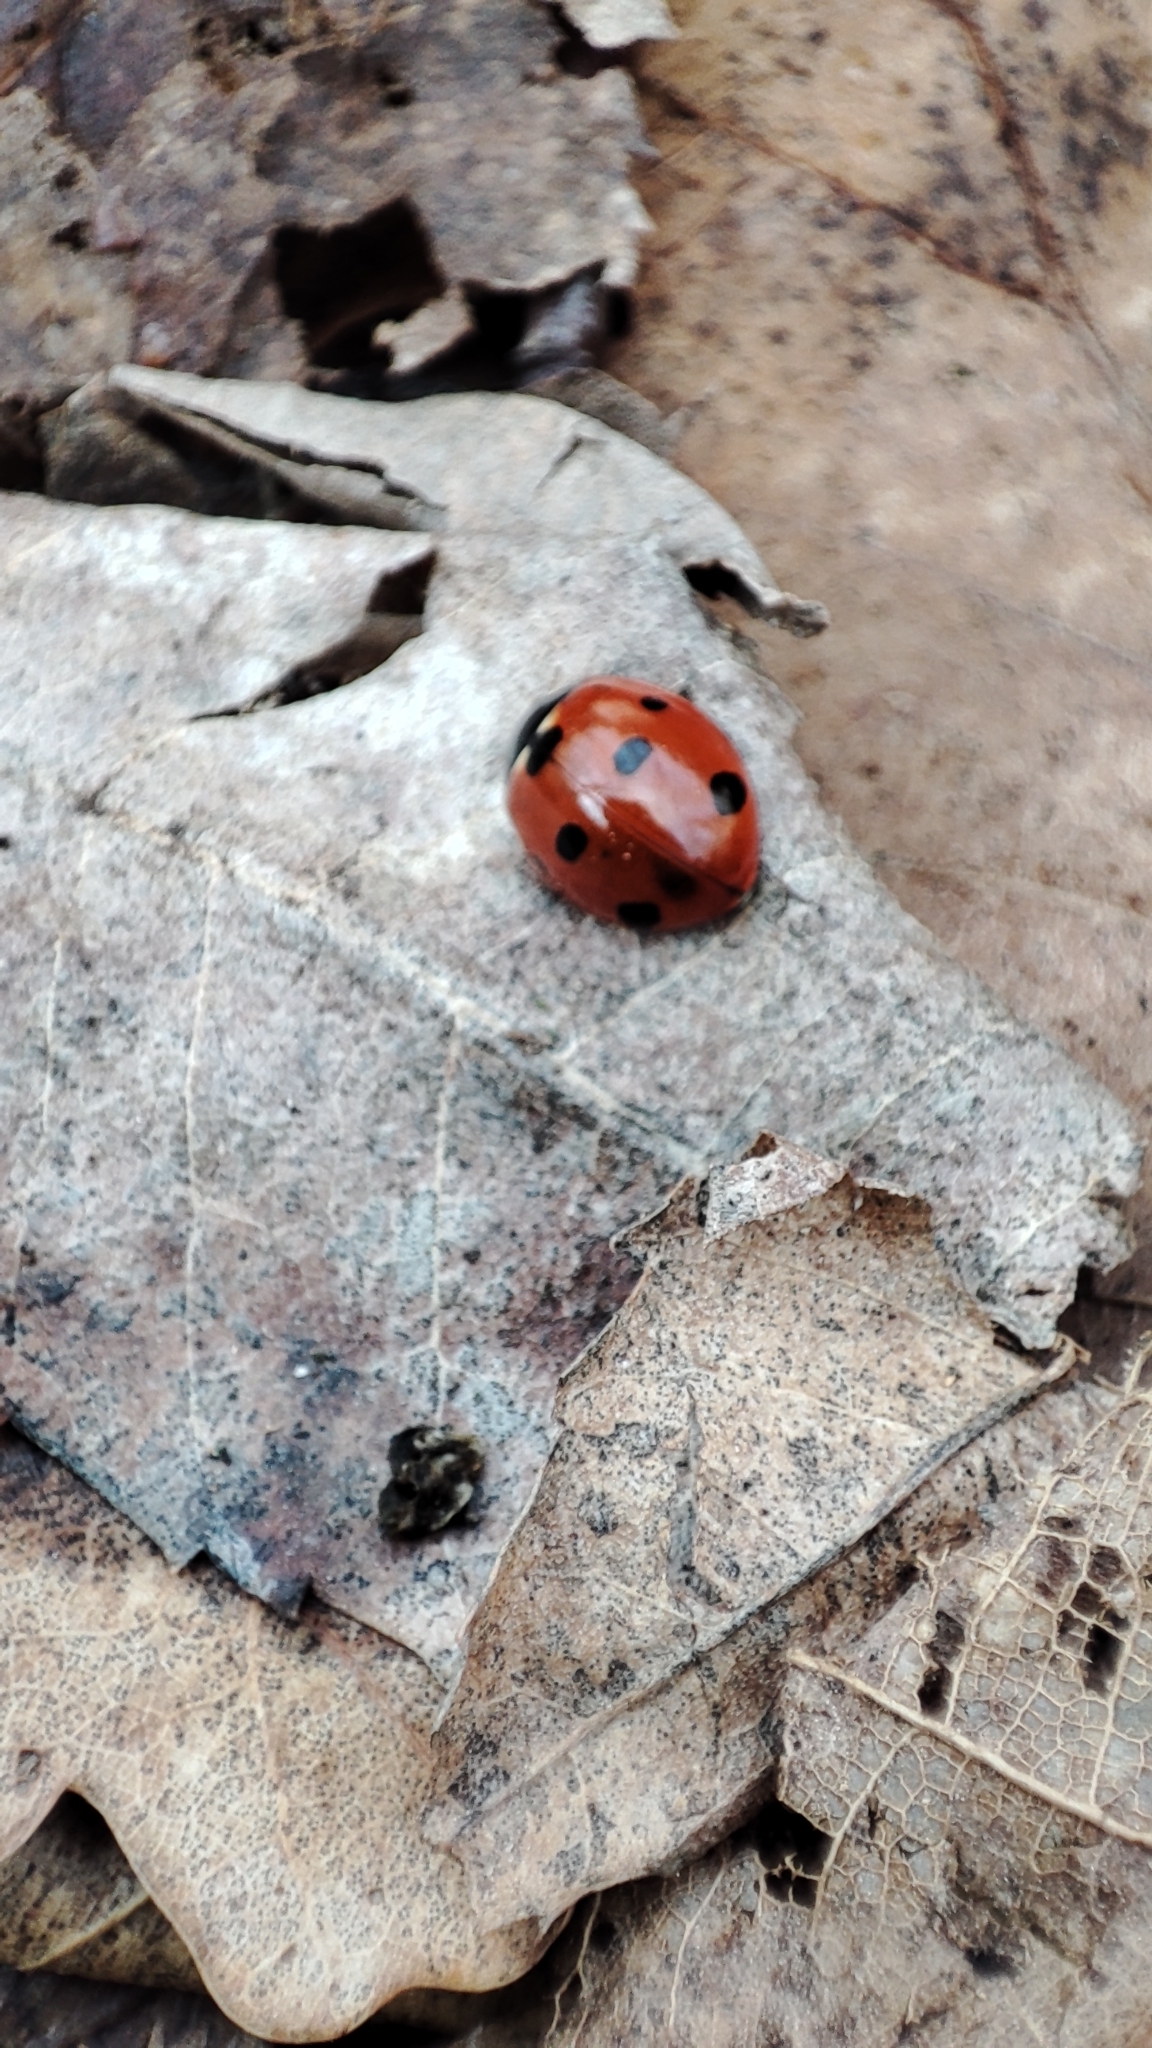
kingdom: Animalia
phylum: Arthropoda
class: Insecta
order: Coleoptera
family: Coccinellidae
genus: Coccinella
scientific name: Coccinella septempunctata
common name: Sevenspotted lady beetle
